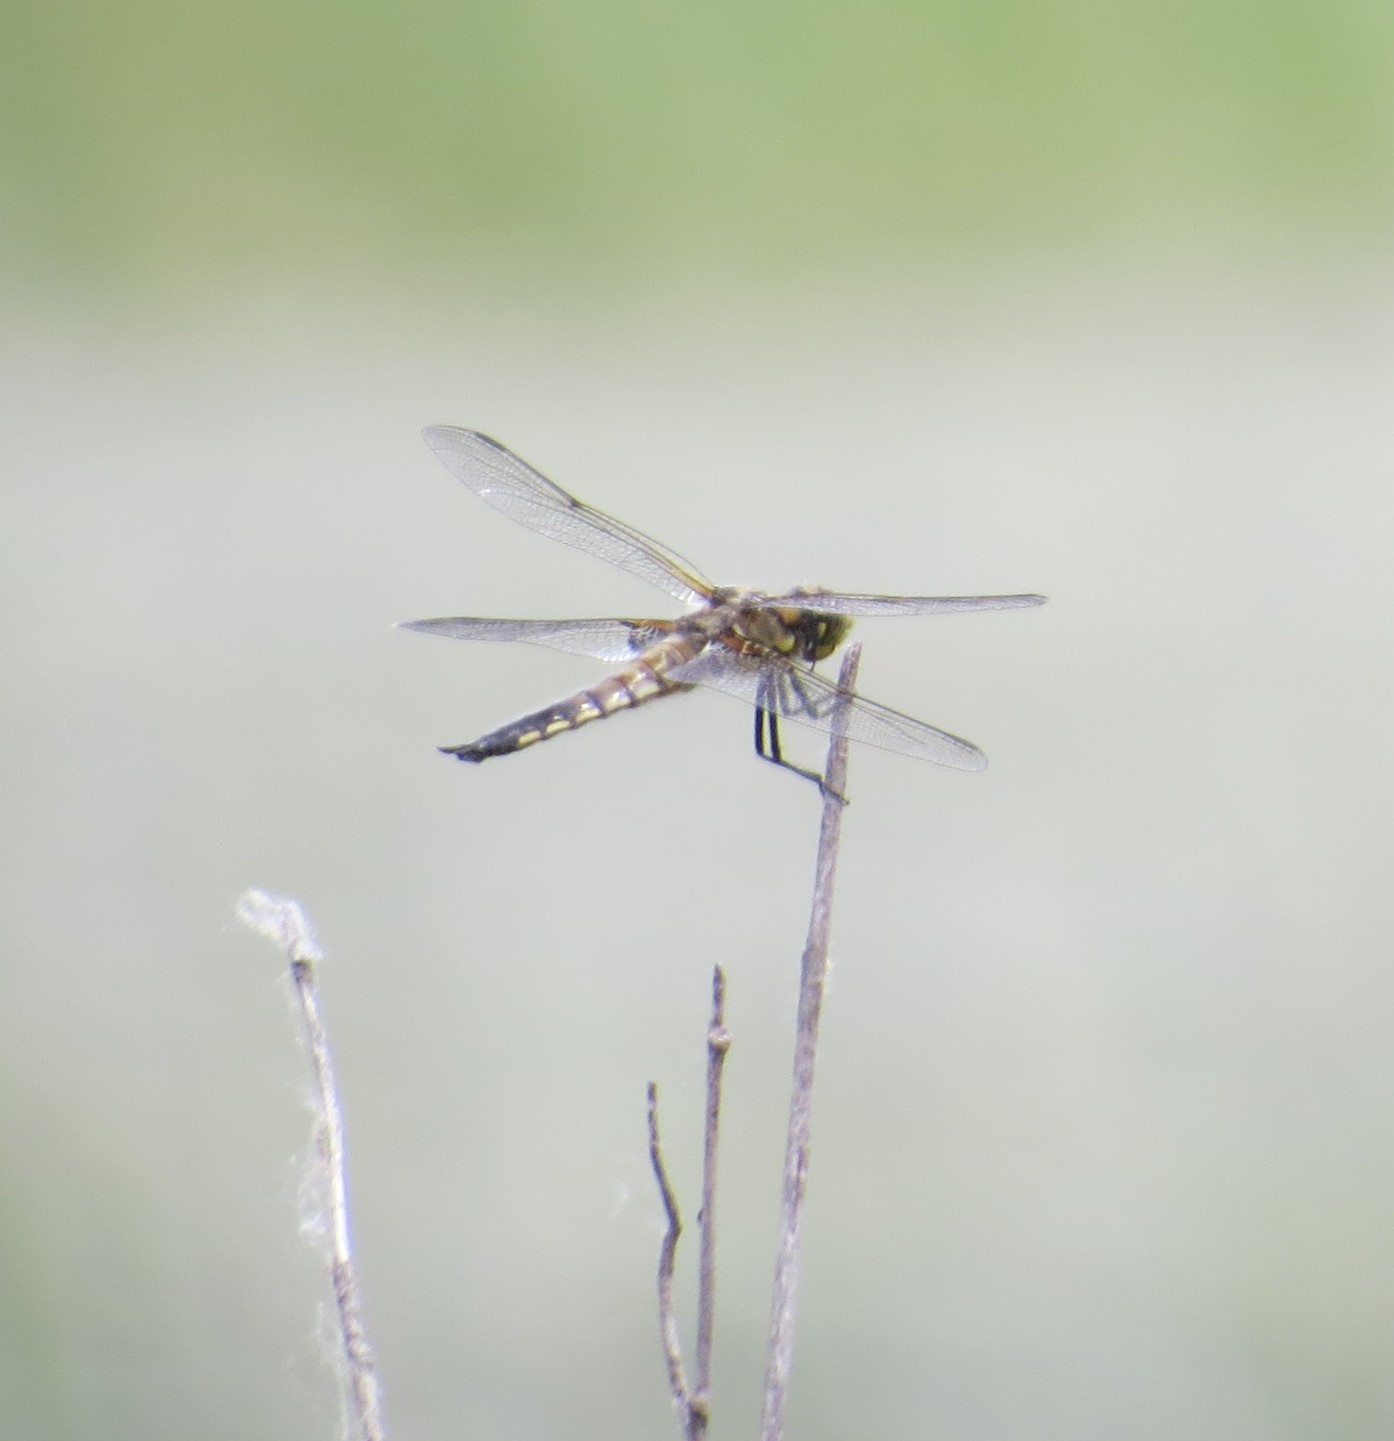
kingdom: Animalia
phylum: Arthropoda
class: Insecta
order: Odonata
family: Libellulidae
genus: Libellula
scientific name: Libellula quadrimaculata
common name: Four-spotted chaser
